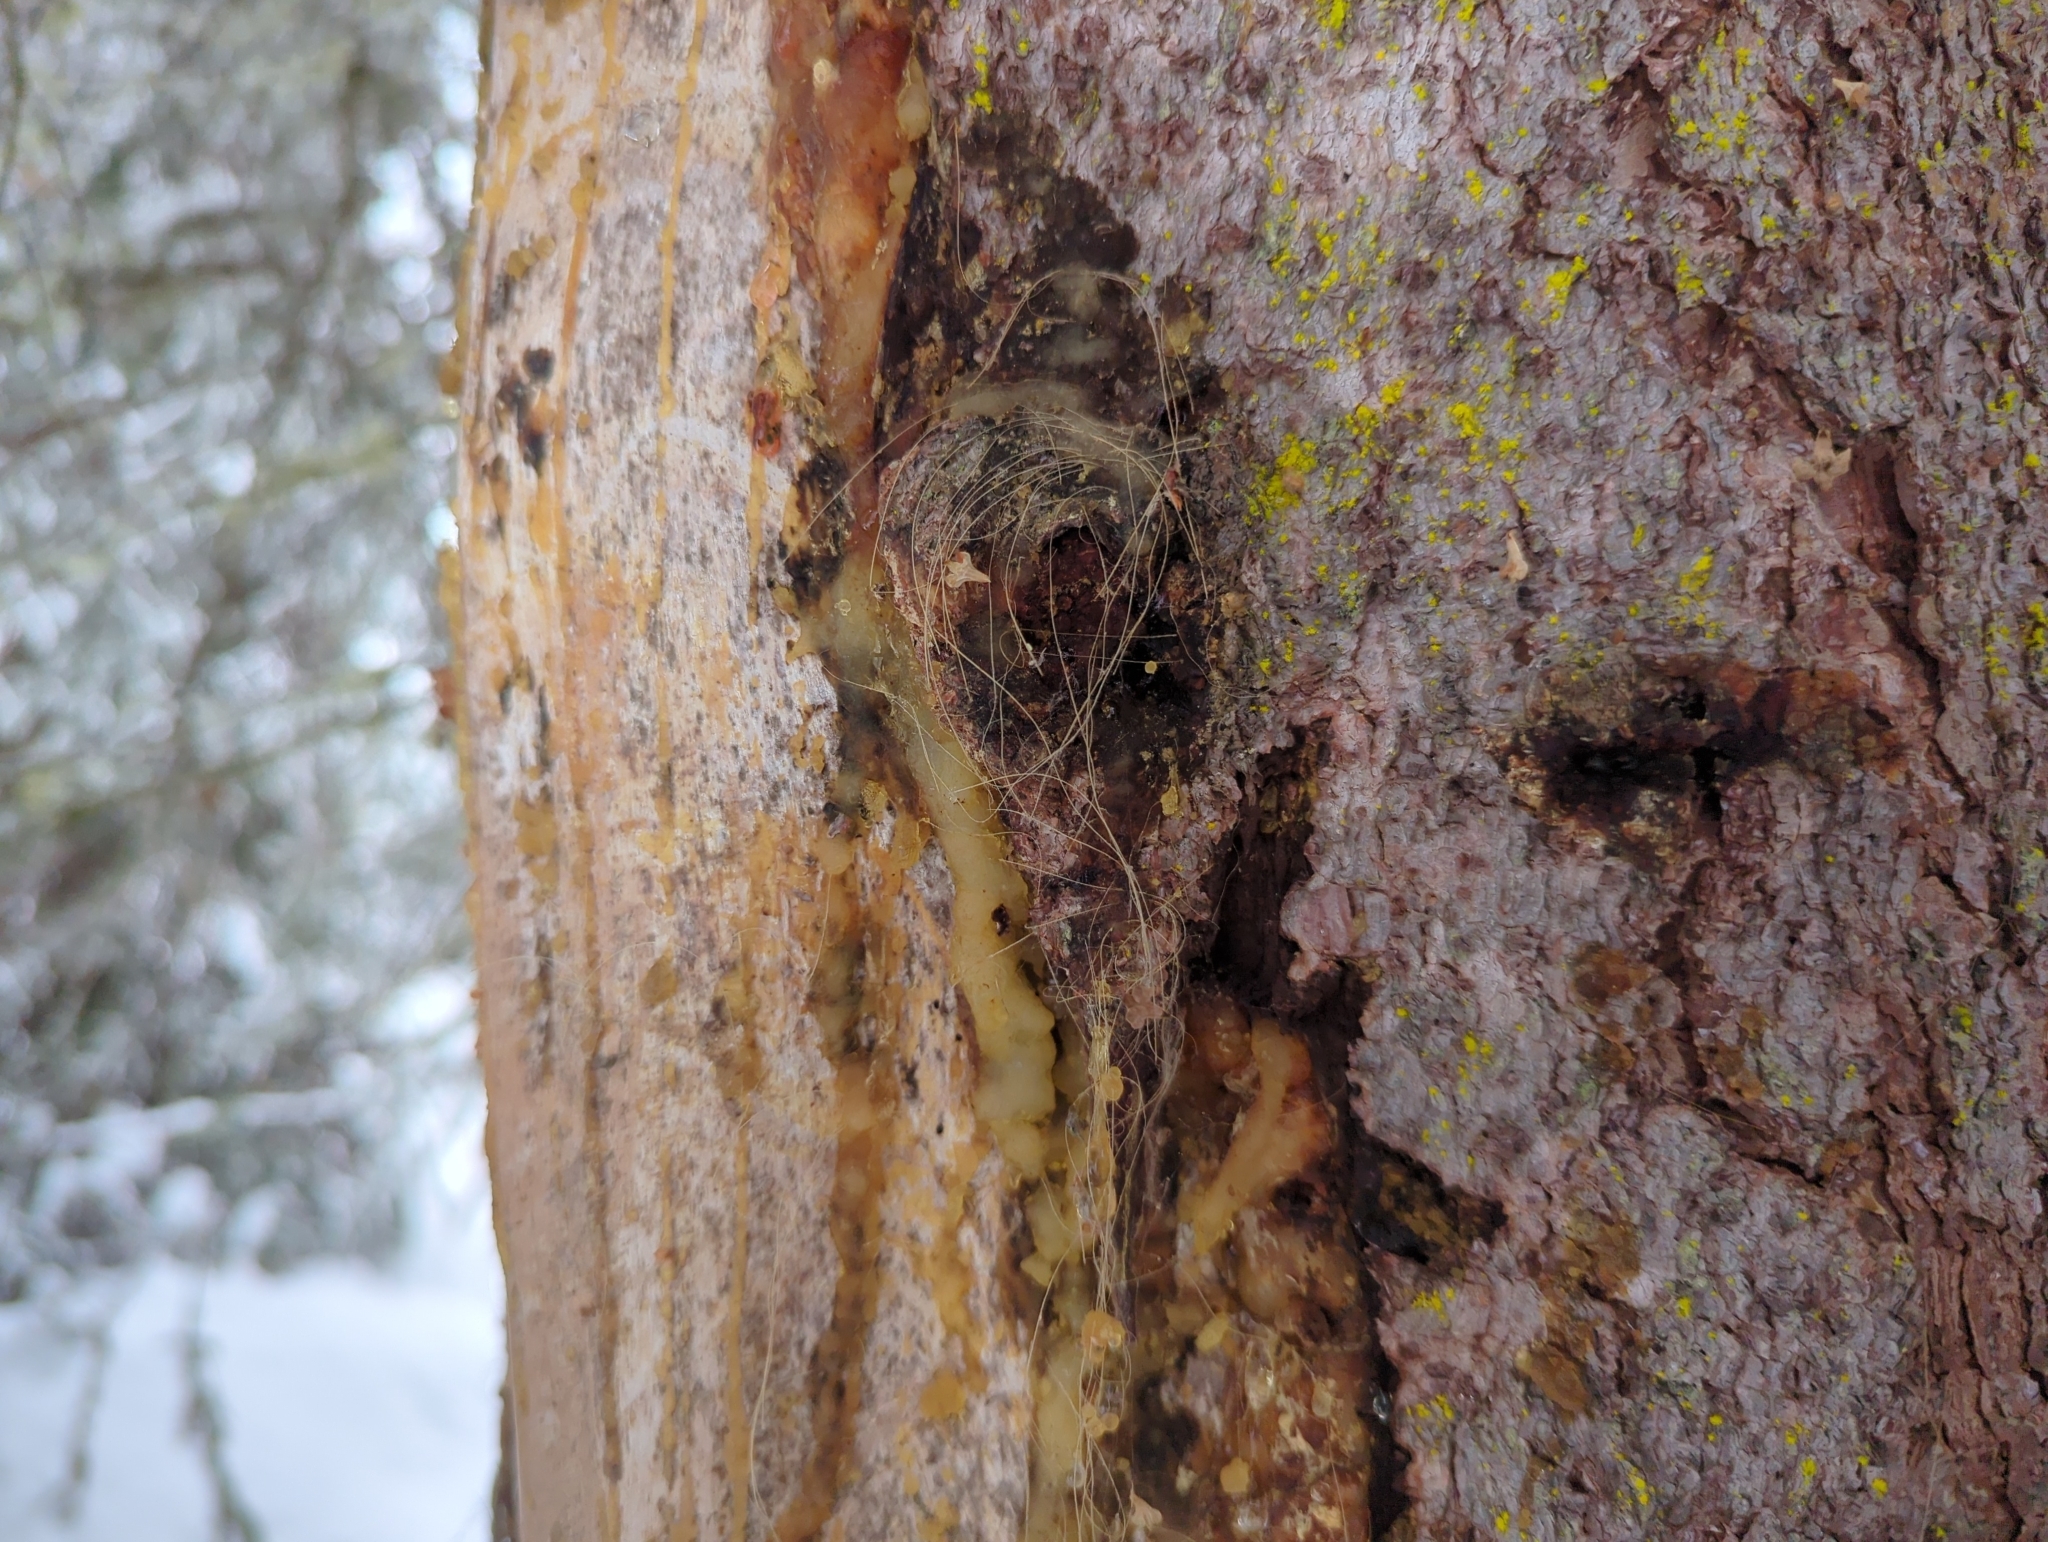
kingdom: Animalia
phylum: Chordata
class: Mammalia
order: Carnivora
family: Ursidae
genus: Ursus
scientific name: Ursus arctos
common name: Brown bear
